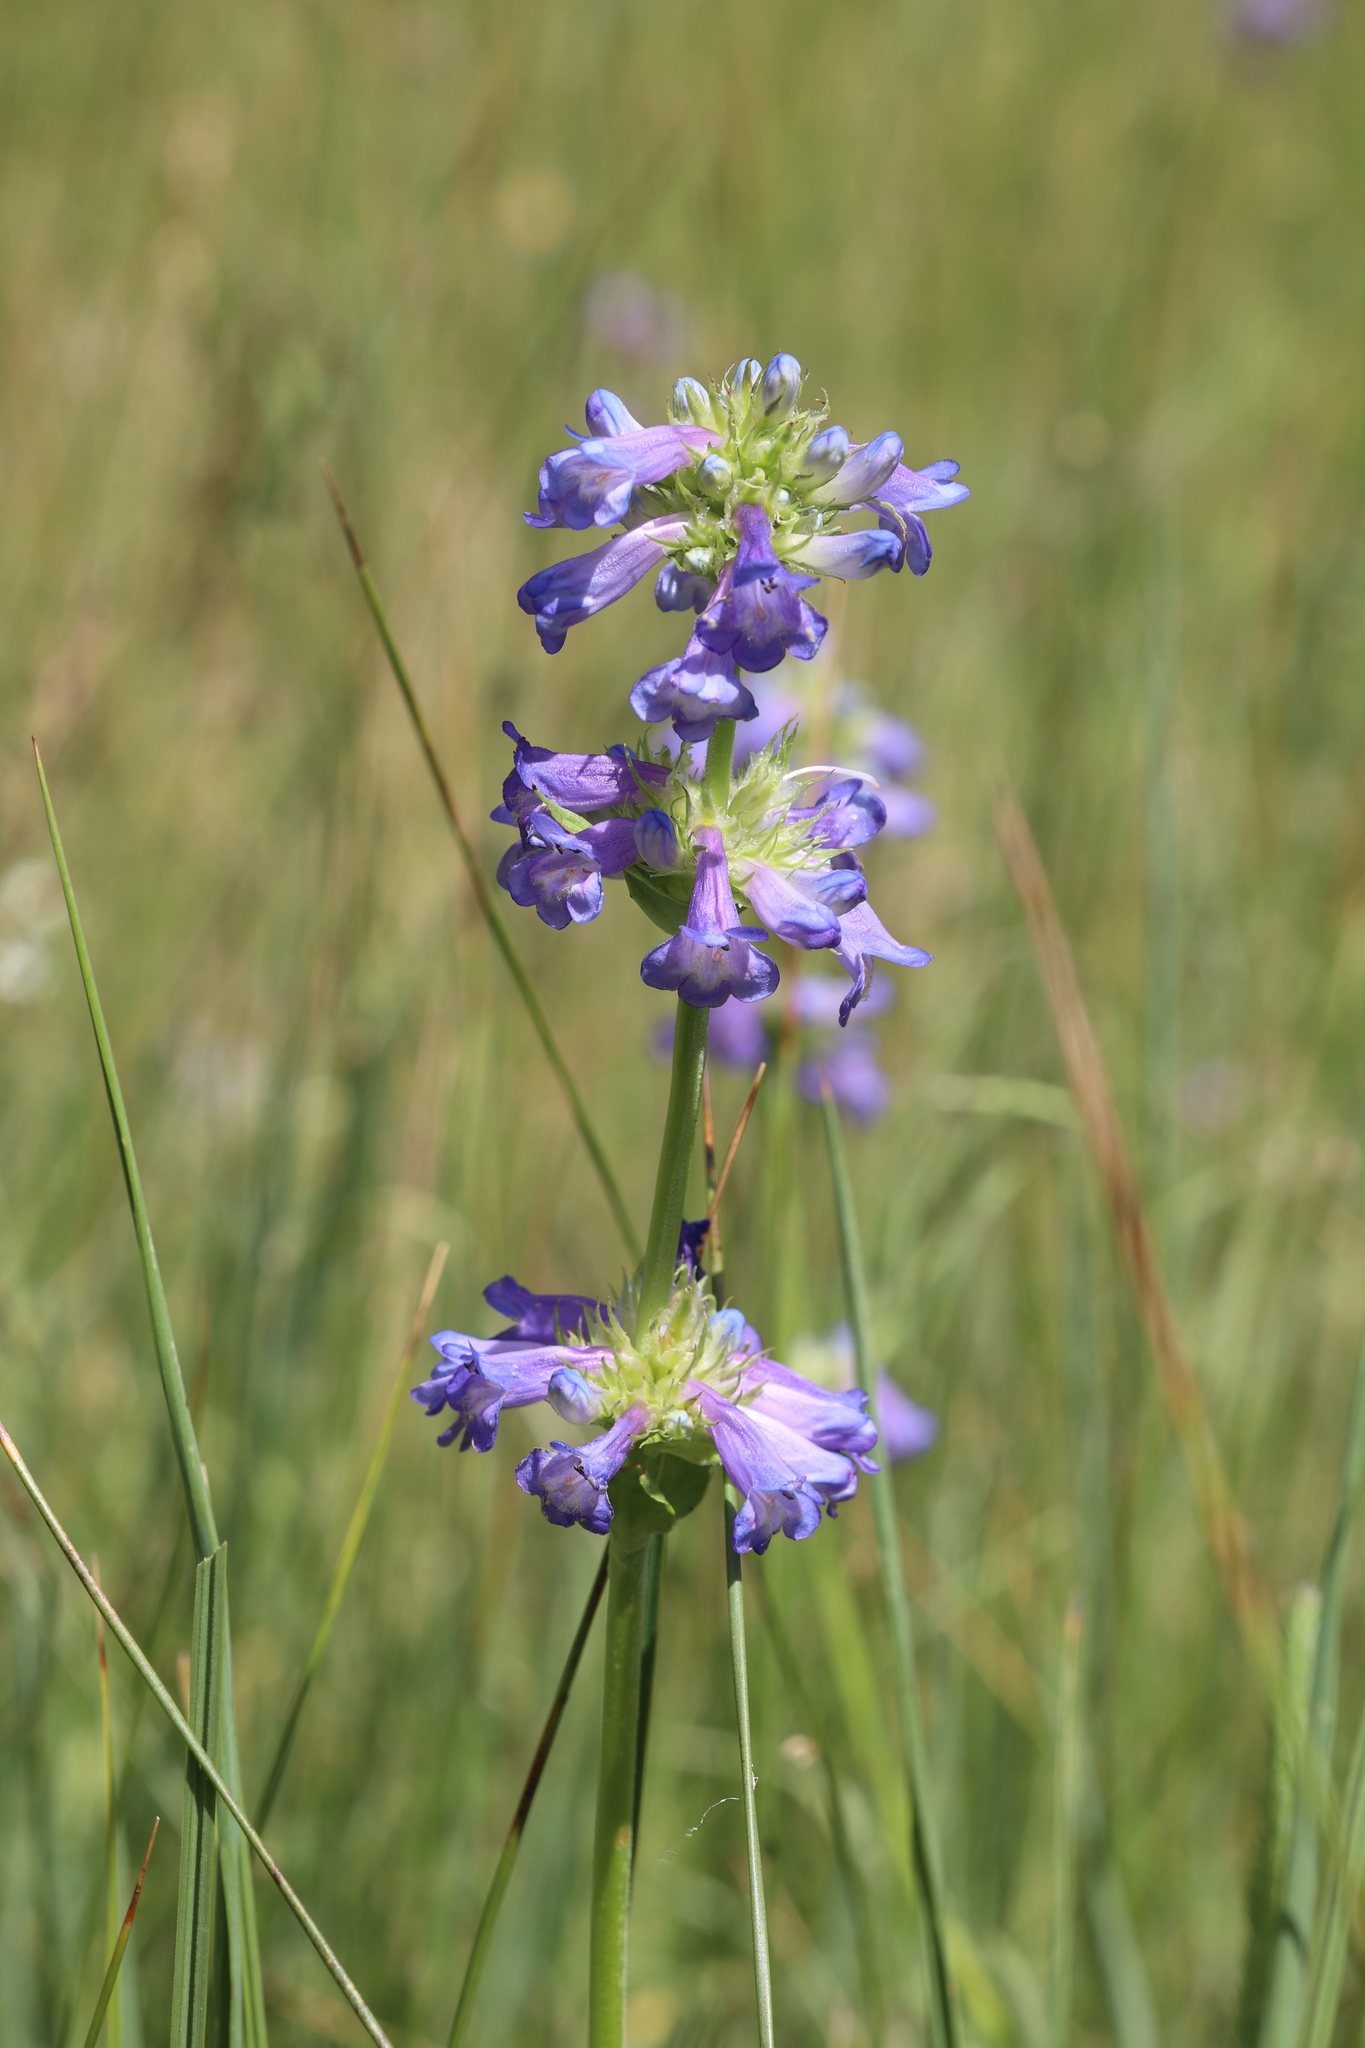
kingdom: Plantae
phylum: Tracheophyta
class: Magnoliopsida
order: Lamiales
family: Plantaginaceae
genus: Penstemon
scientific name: Penstemon rydbergii
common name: Rydberg's beardtongue
